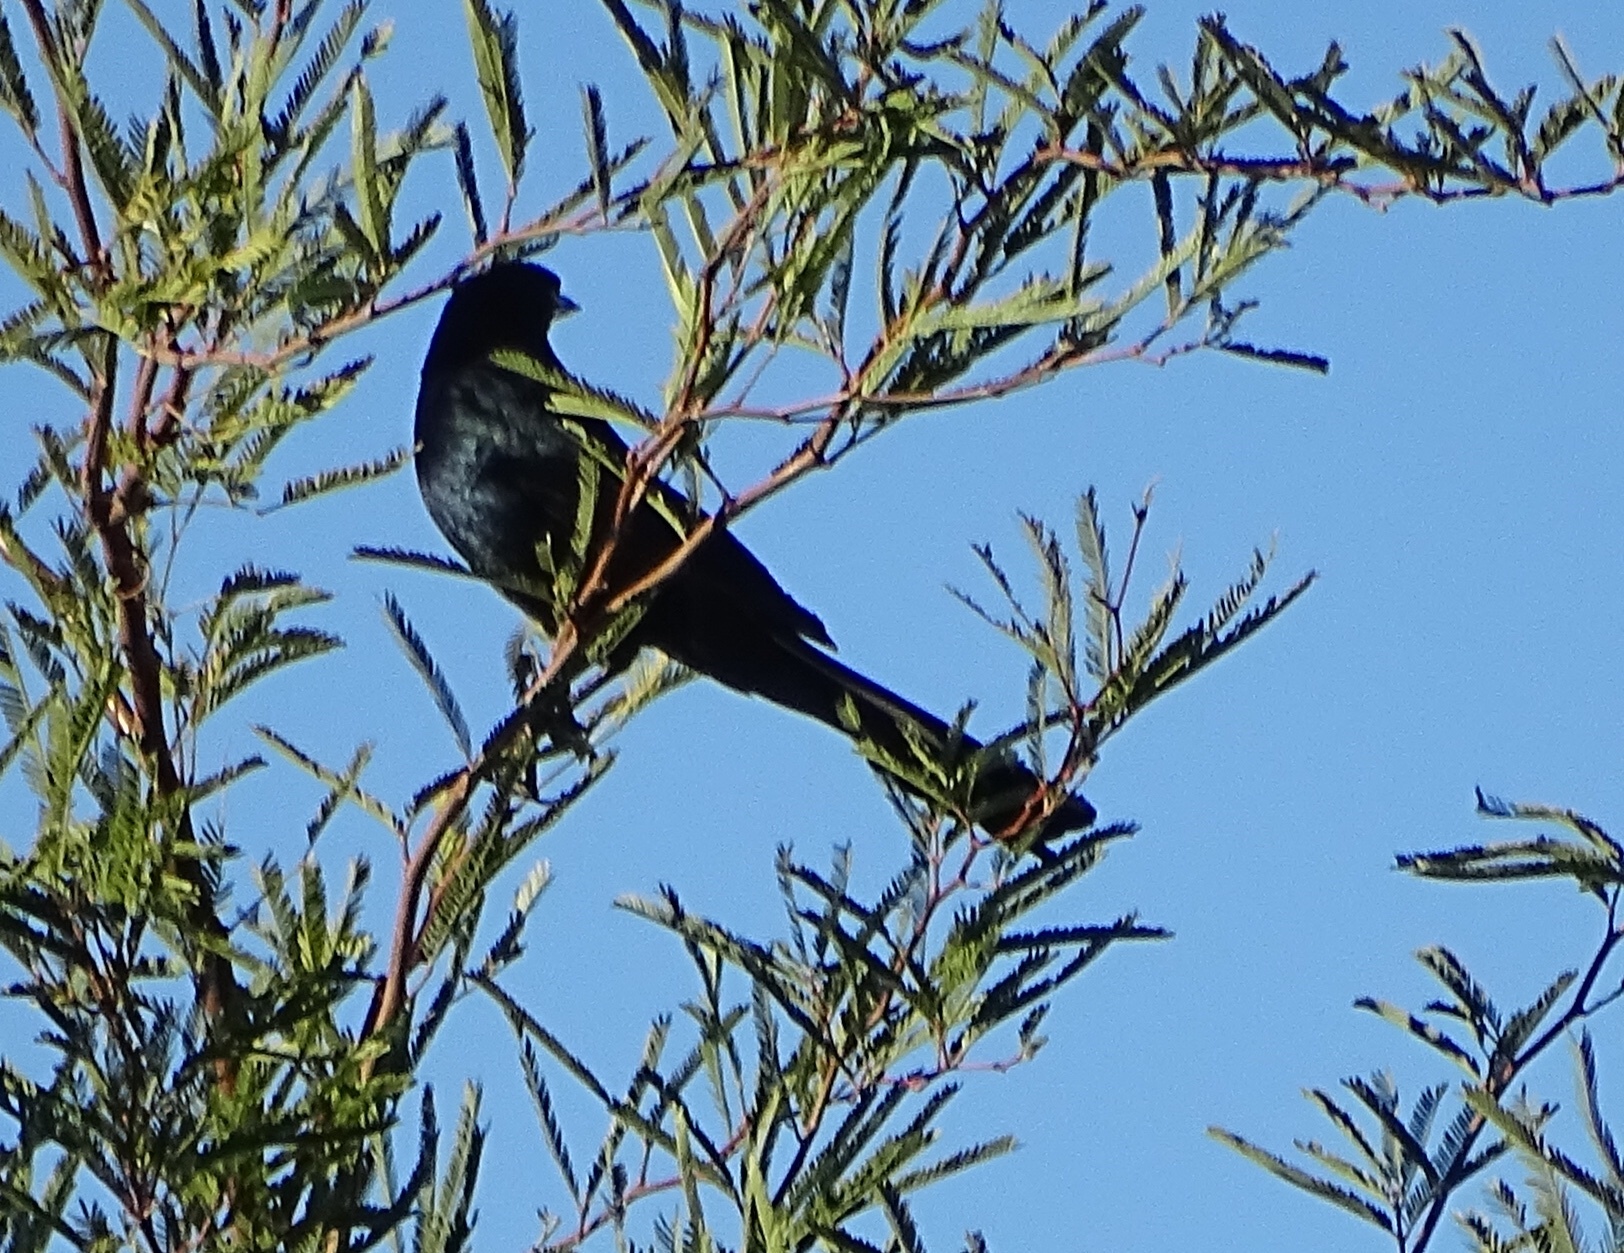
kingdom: Animalia
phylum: Chordata
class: Aves
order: Passeriformes
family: Icteridae
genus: Quiscalus
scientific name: Quiscalus mexicanus
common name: Great-tailed grackle
